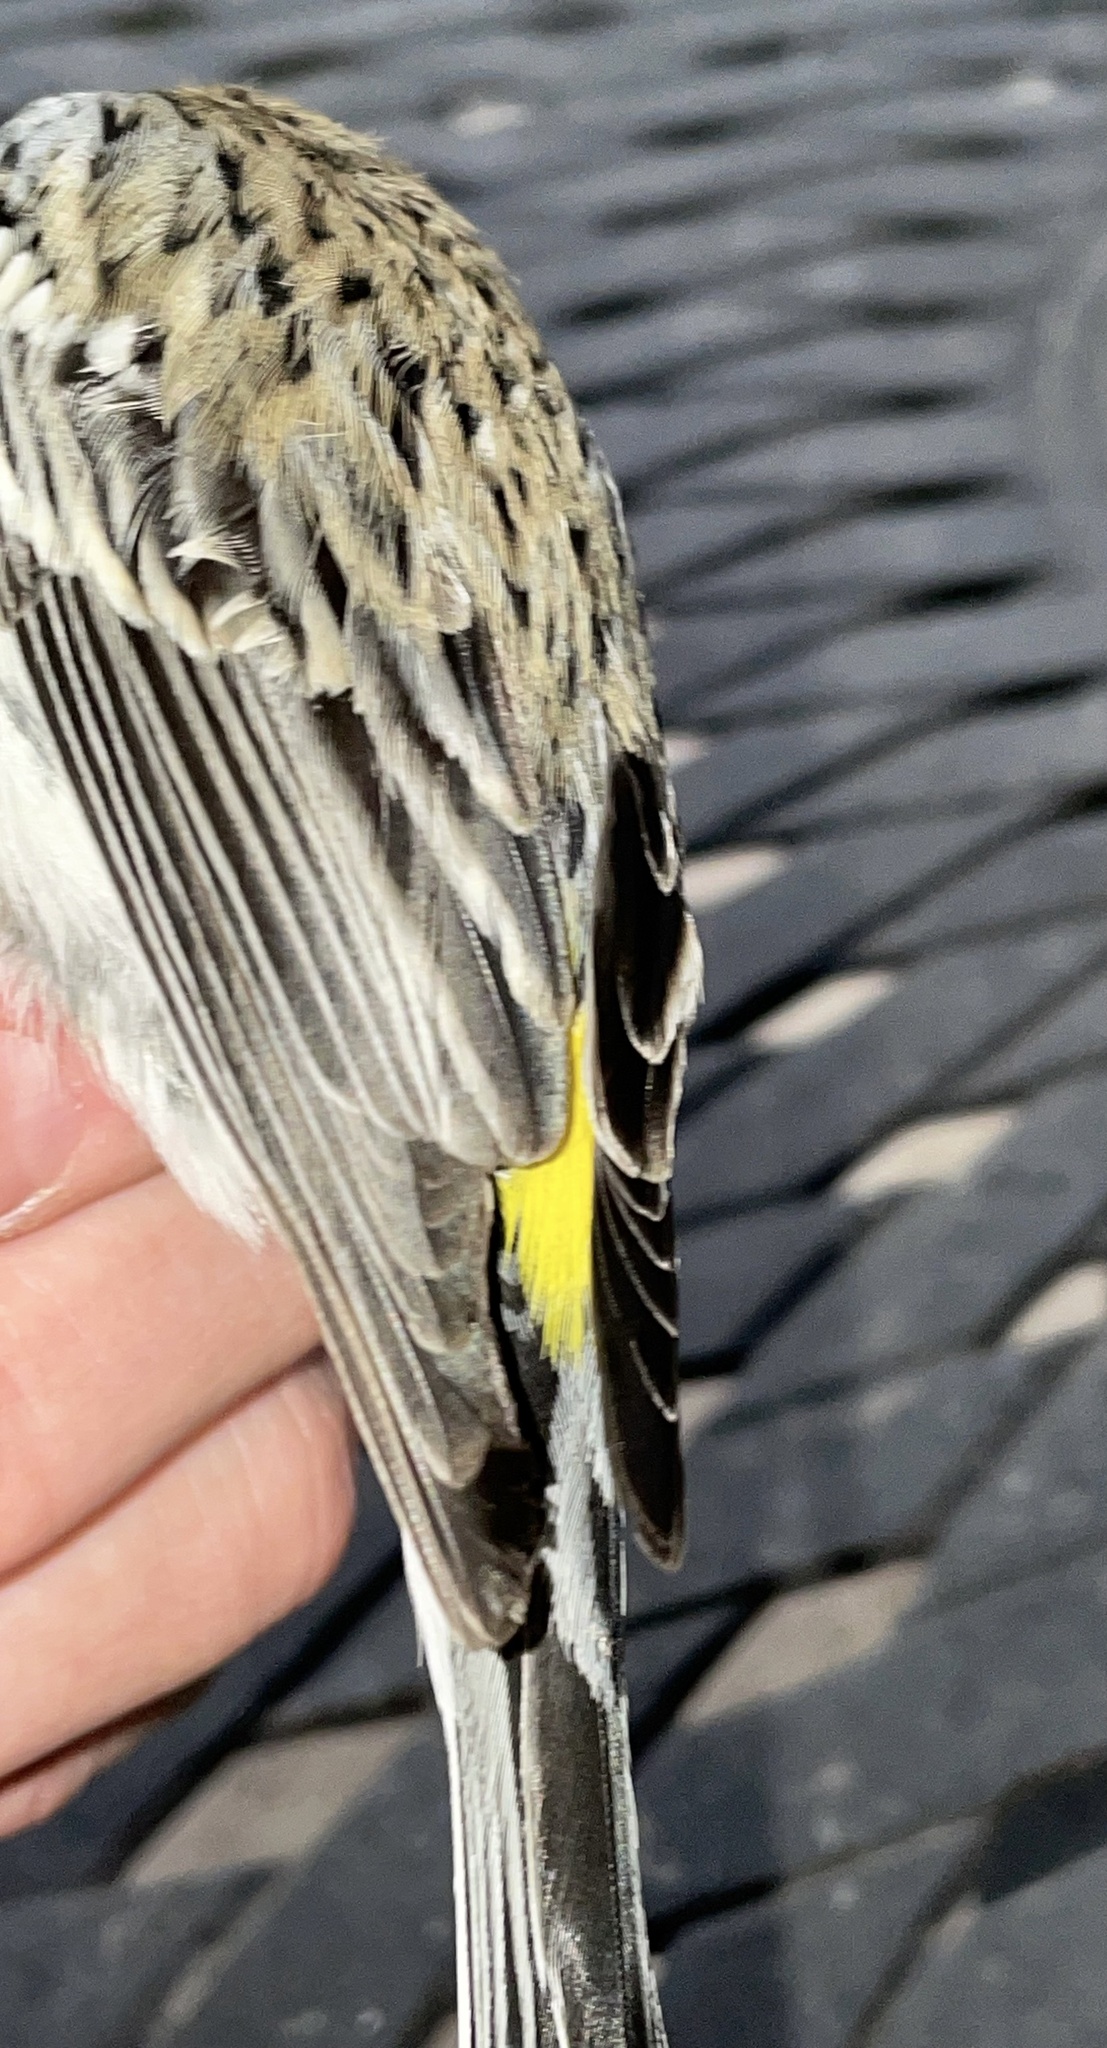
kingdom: Animalia
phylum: Chordata
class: Aves
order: Passeriformes
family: Parulidae
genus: Setophaga
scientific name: Setophaga coronata
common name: Myrtle warbler
